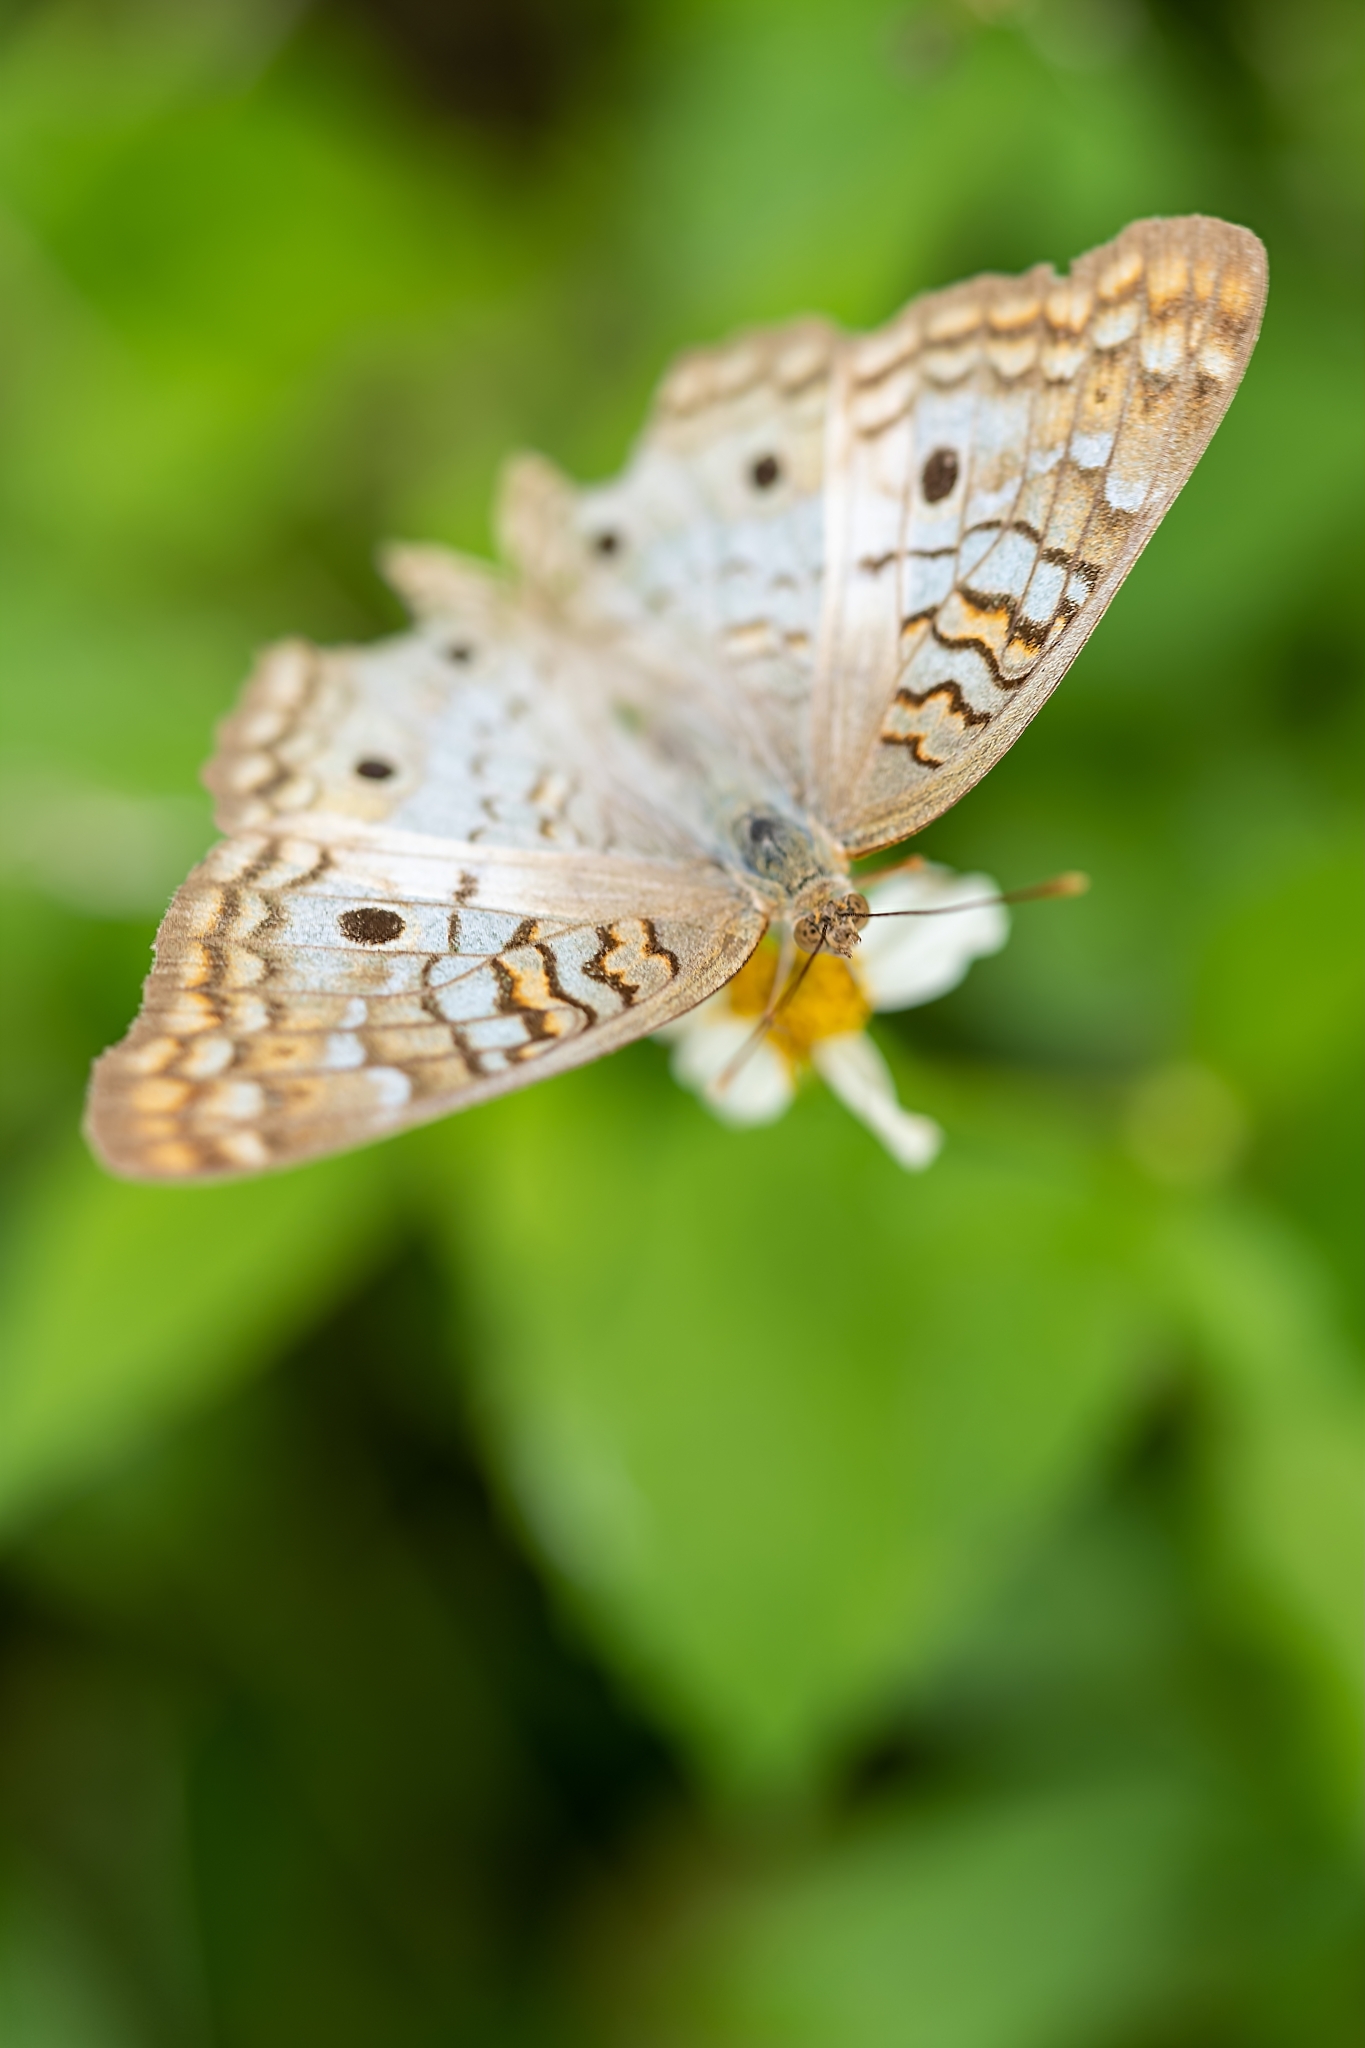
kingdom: Animalia
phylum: Arthropoda
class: Insecta
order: Lepidoptera
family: Nymphalidae
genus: Anartia
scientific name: Anartia jatrophae
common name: White peacock
